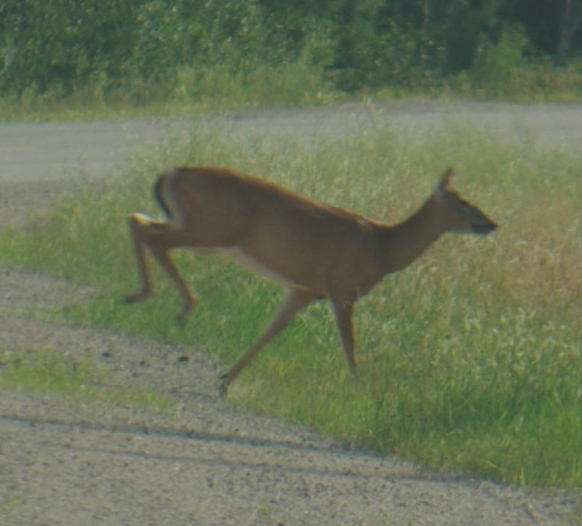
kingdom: Animalia
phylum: Chordata
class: Mammalia
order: Artiodactyla
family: Cervidae
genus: Odocoileus
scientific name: Odocoileus virginianus
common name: White-tailed deer
